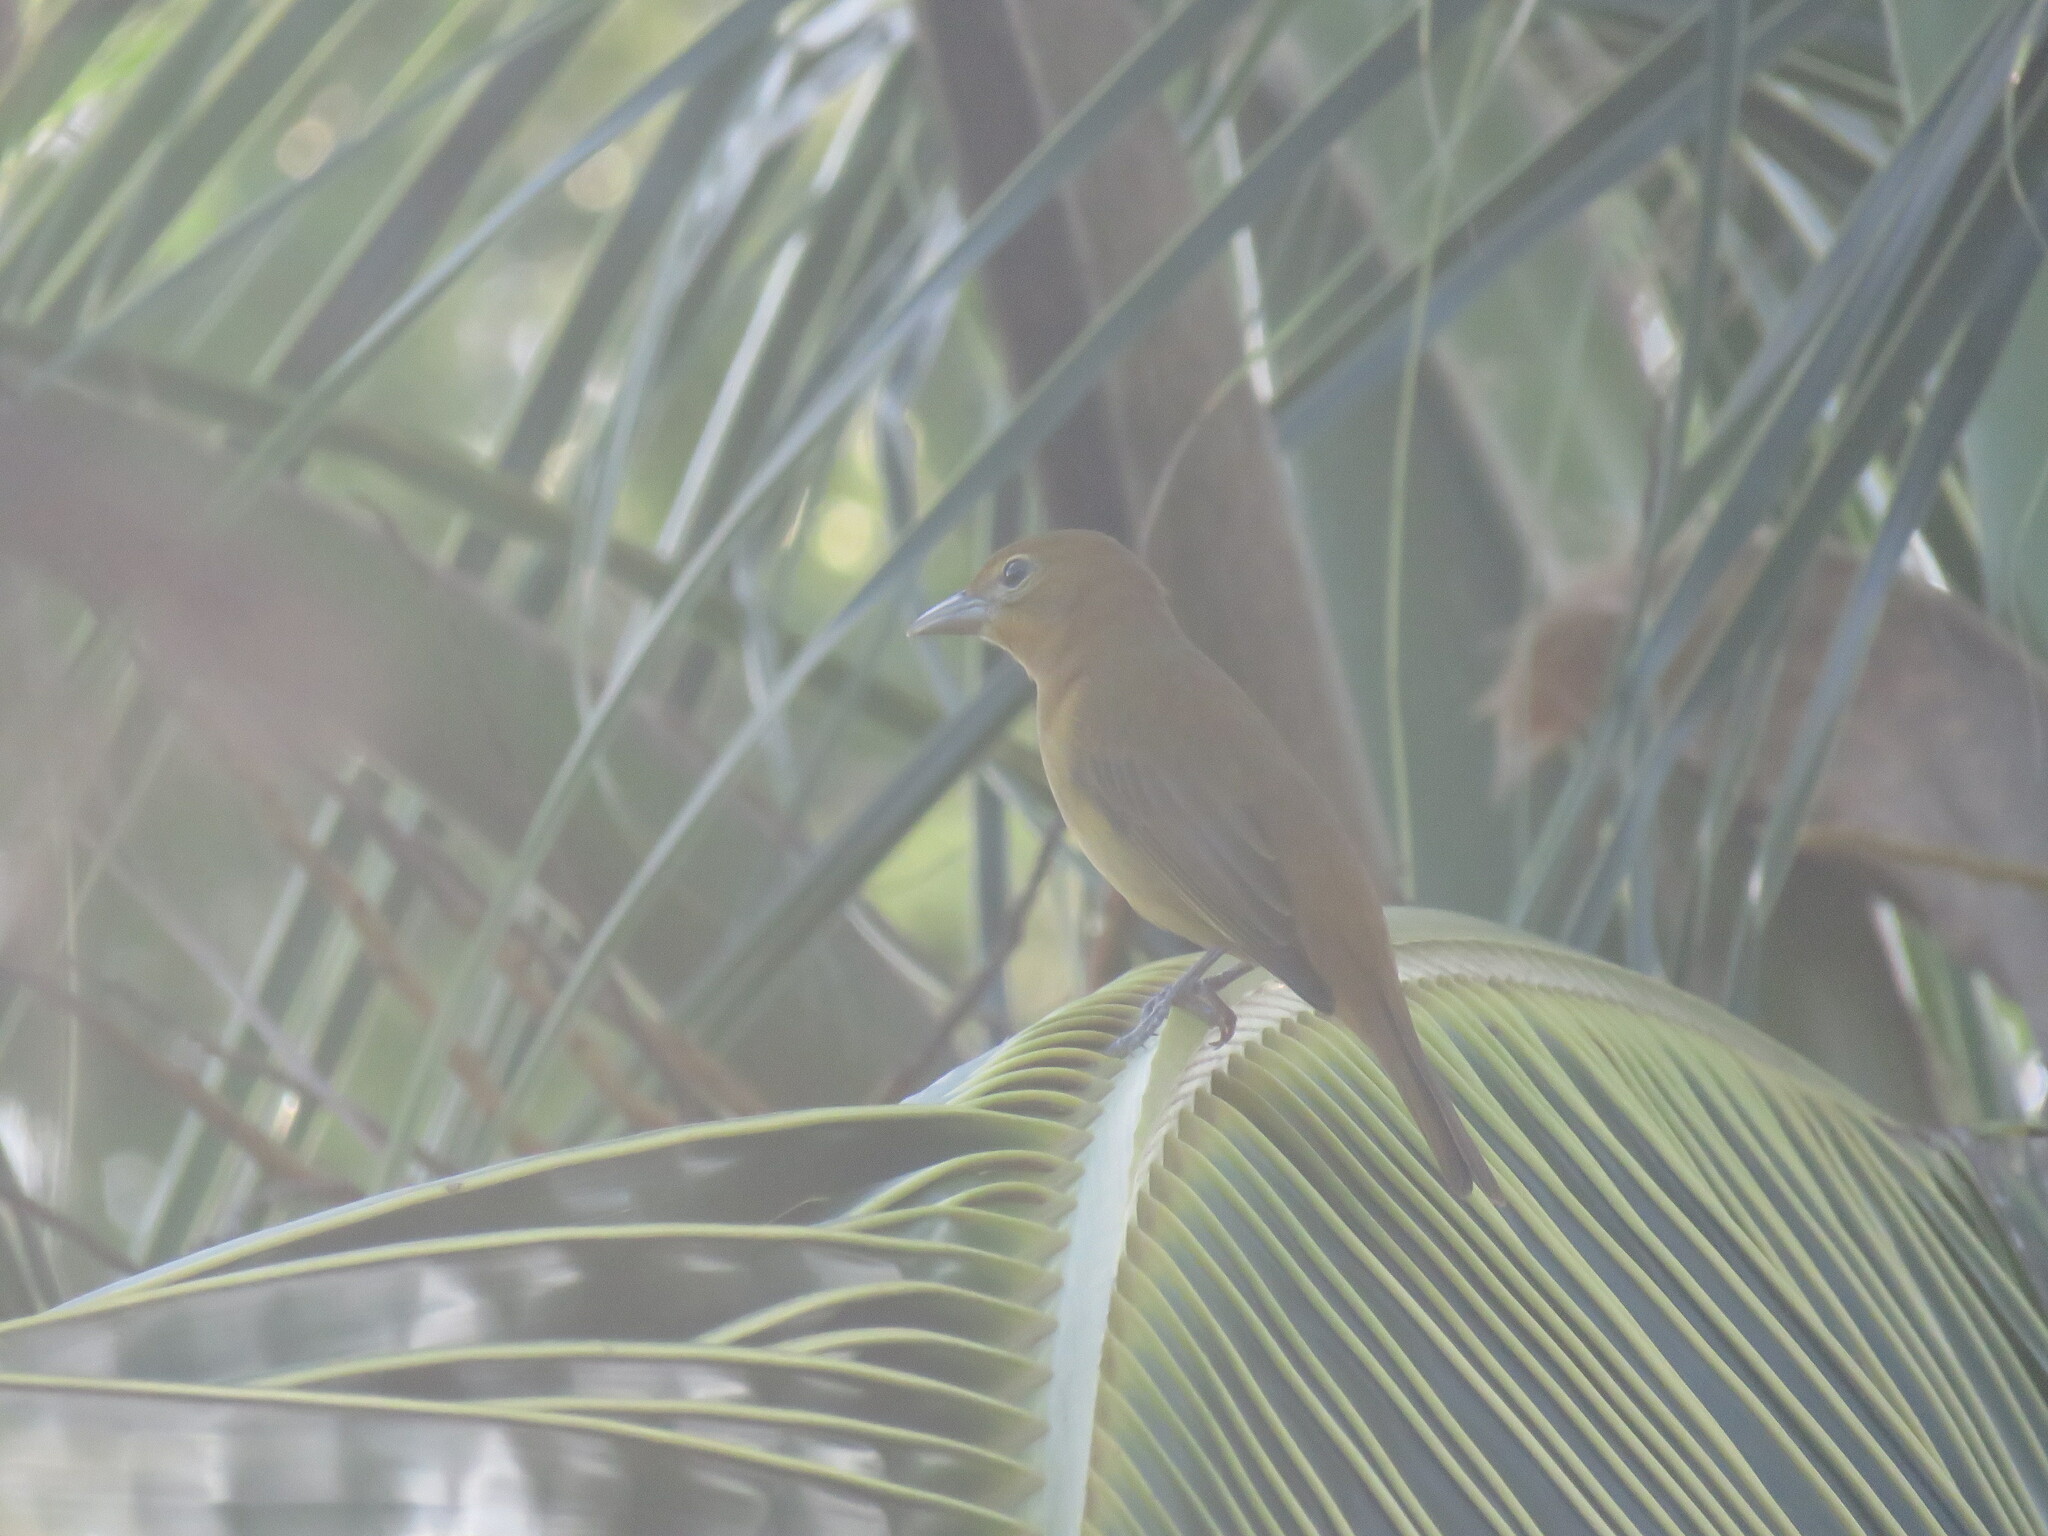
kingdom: Animalia
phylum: Chordata
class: Aves
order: Passeriformes
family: Cardinalidae
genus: Piranga
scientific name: Piranga rubra
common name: Summer tanager
